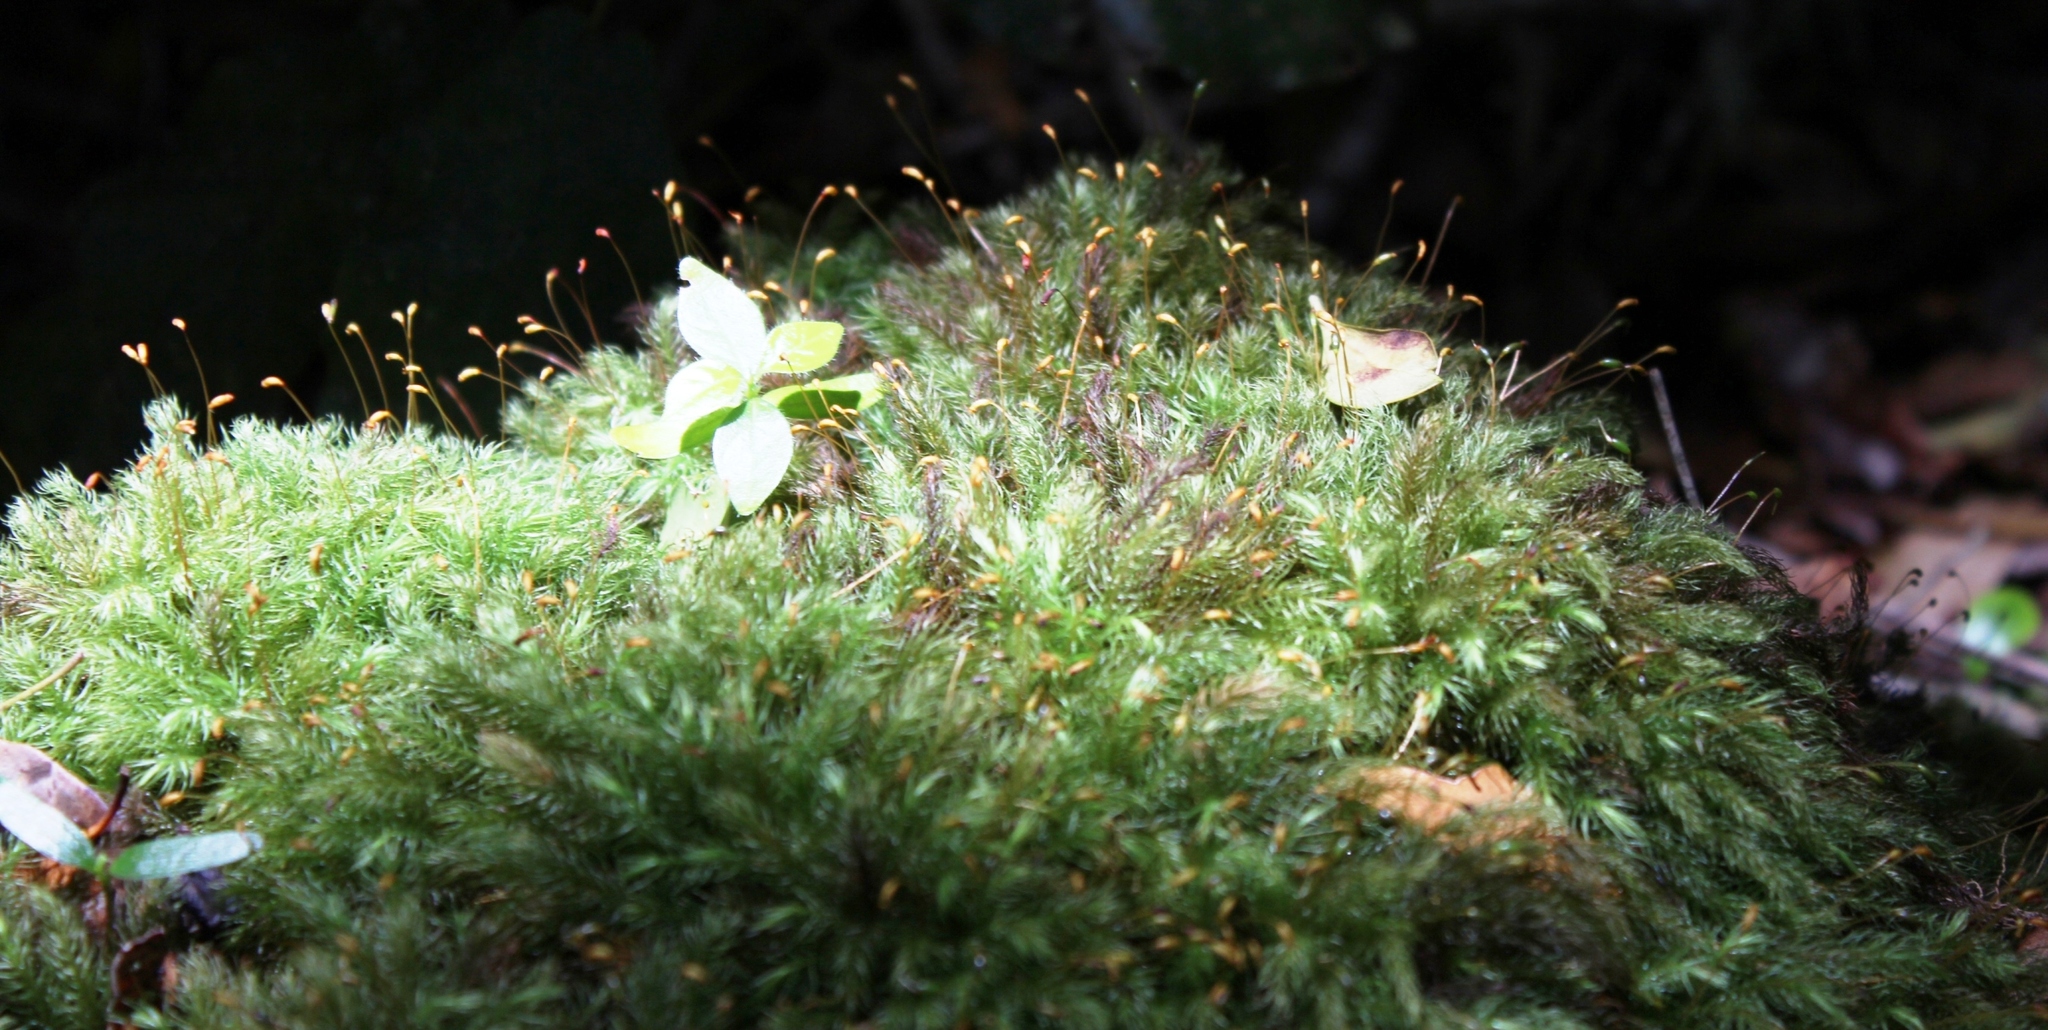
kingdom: Plantae
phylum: Bryophyta
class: Bryopsida
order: Rhizogoniales
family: Calomniaceae
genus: Pyrrhobryum
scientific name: Pyrrhobryum spiniforme
